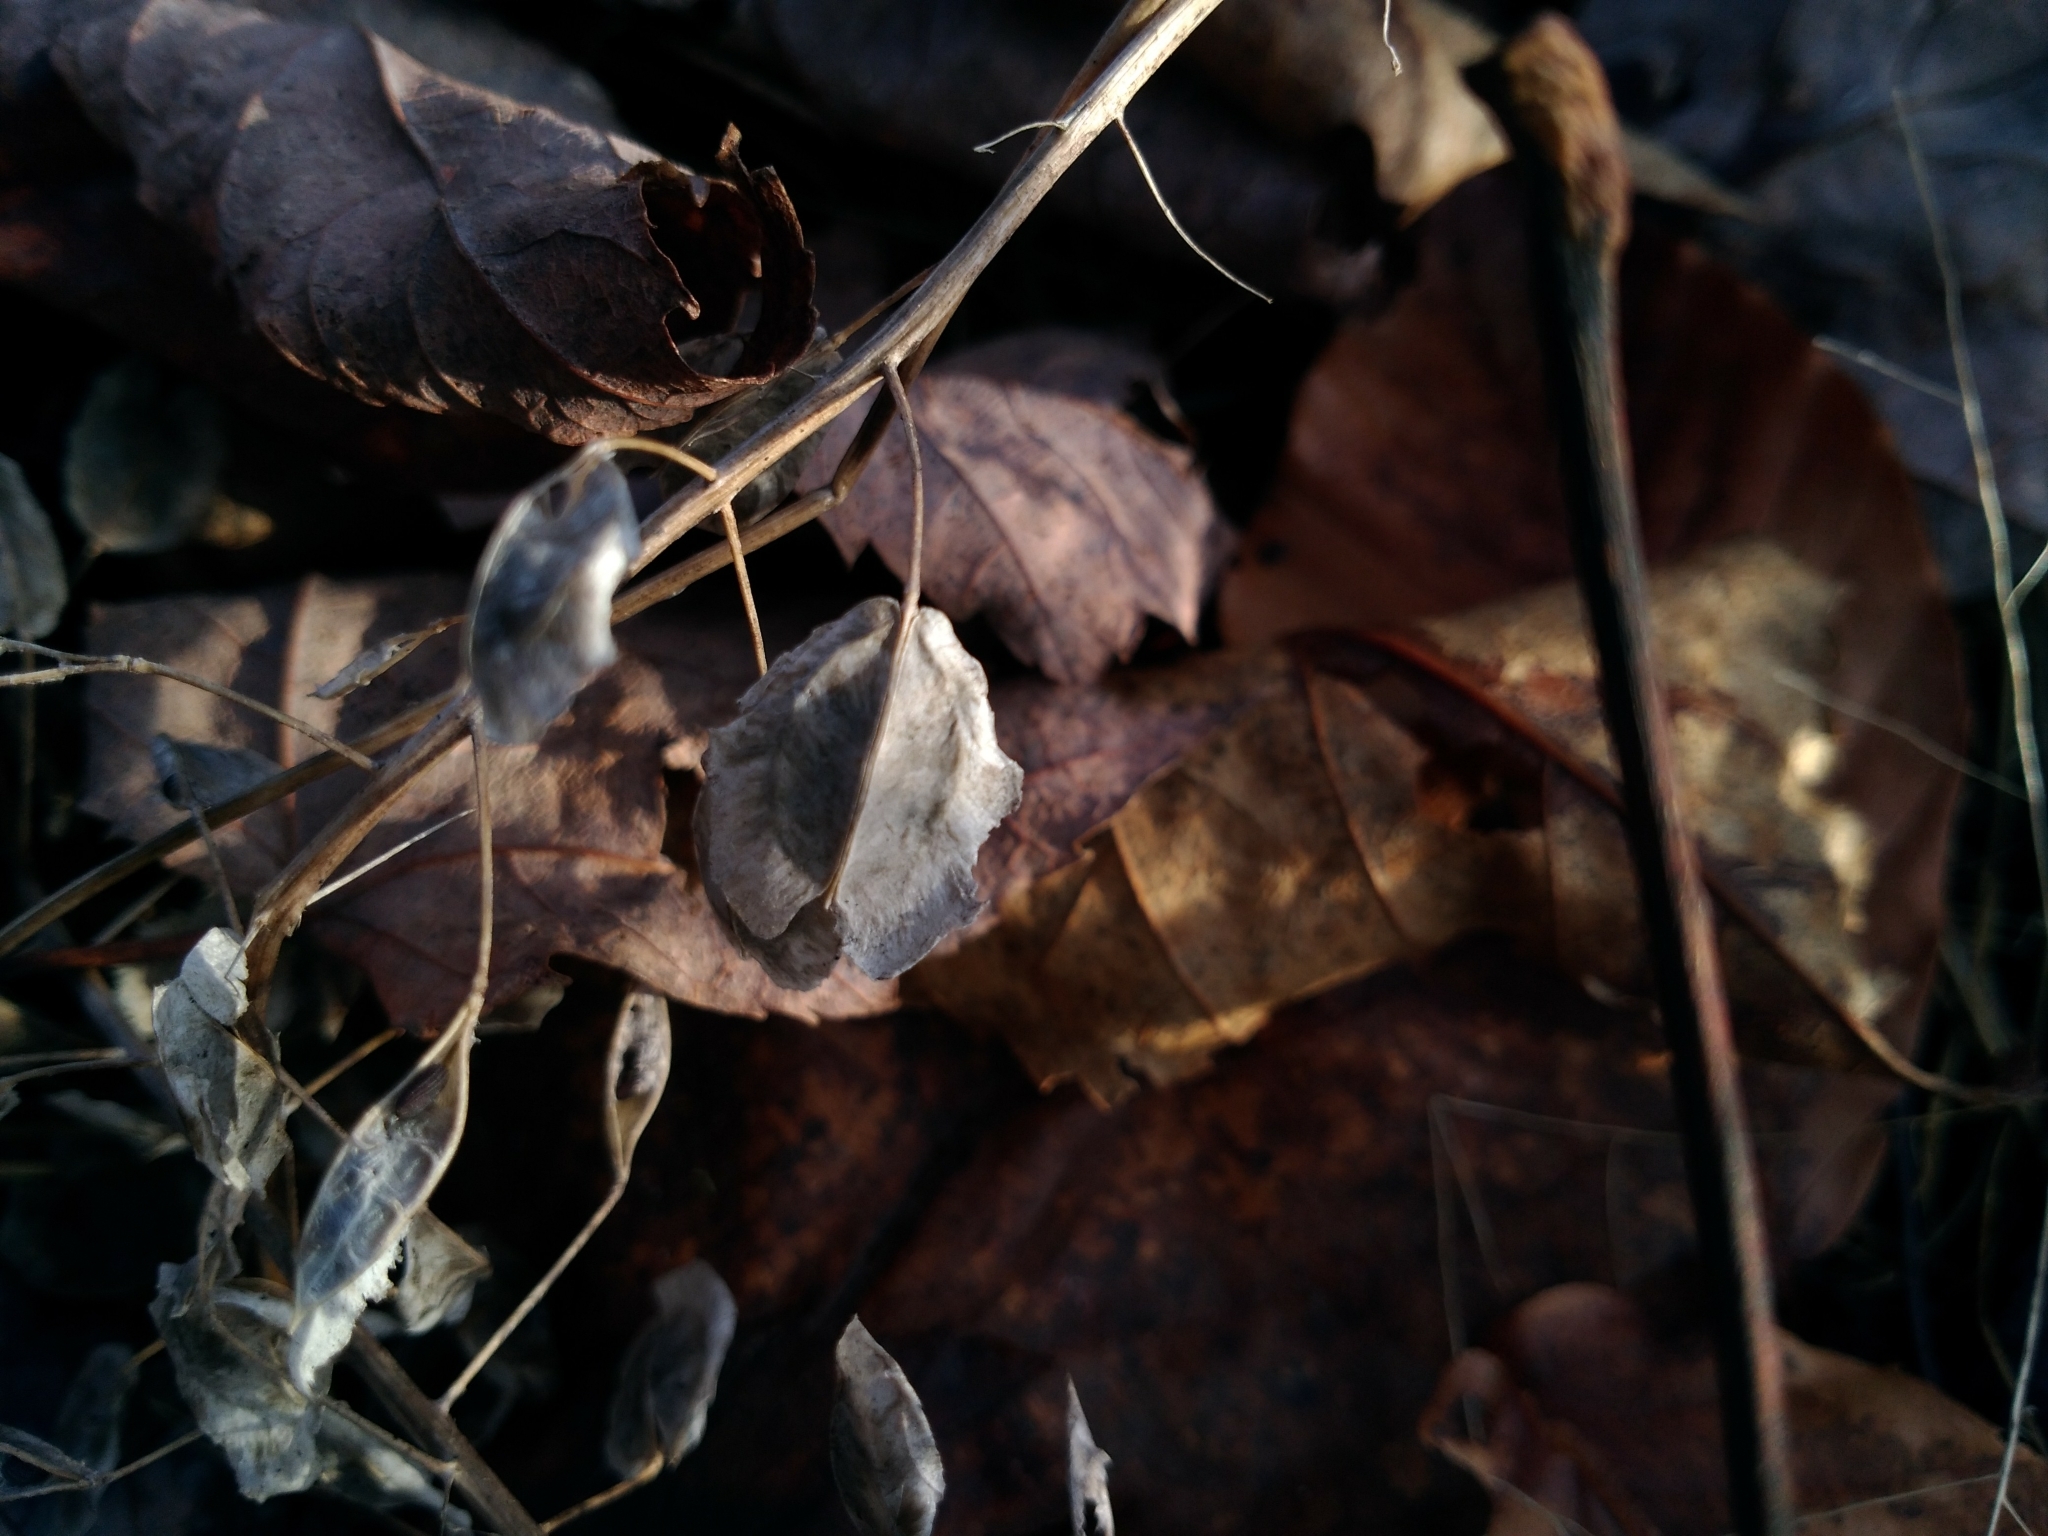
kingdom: Plantae
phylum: Tracheophyta
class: Magnoliopsida
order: Brassicales
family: Brassicaceae
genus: Thlaspi
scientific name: Thlaspi arvense
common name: Field pennycress
